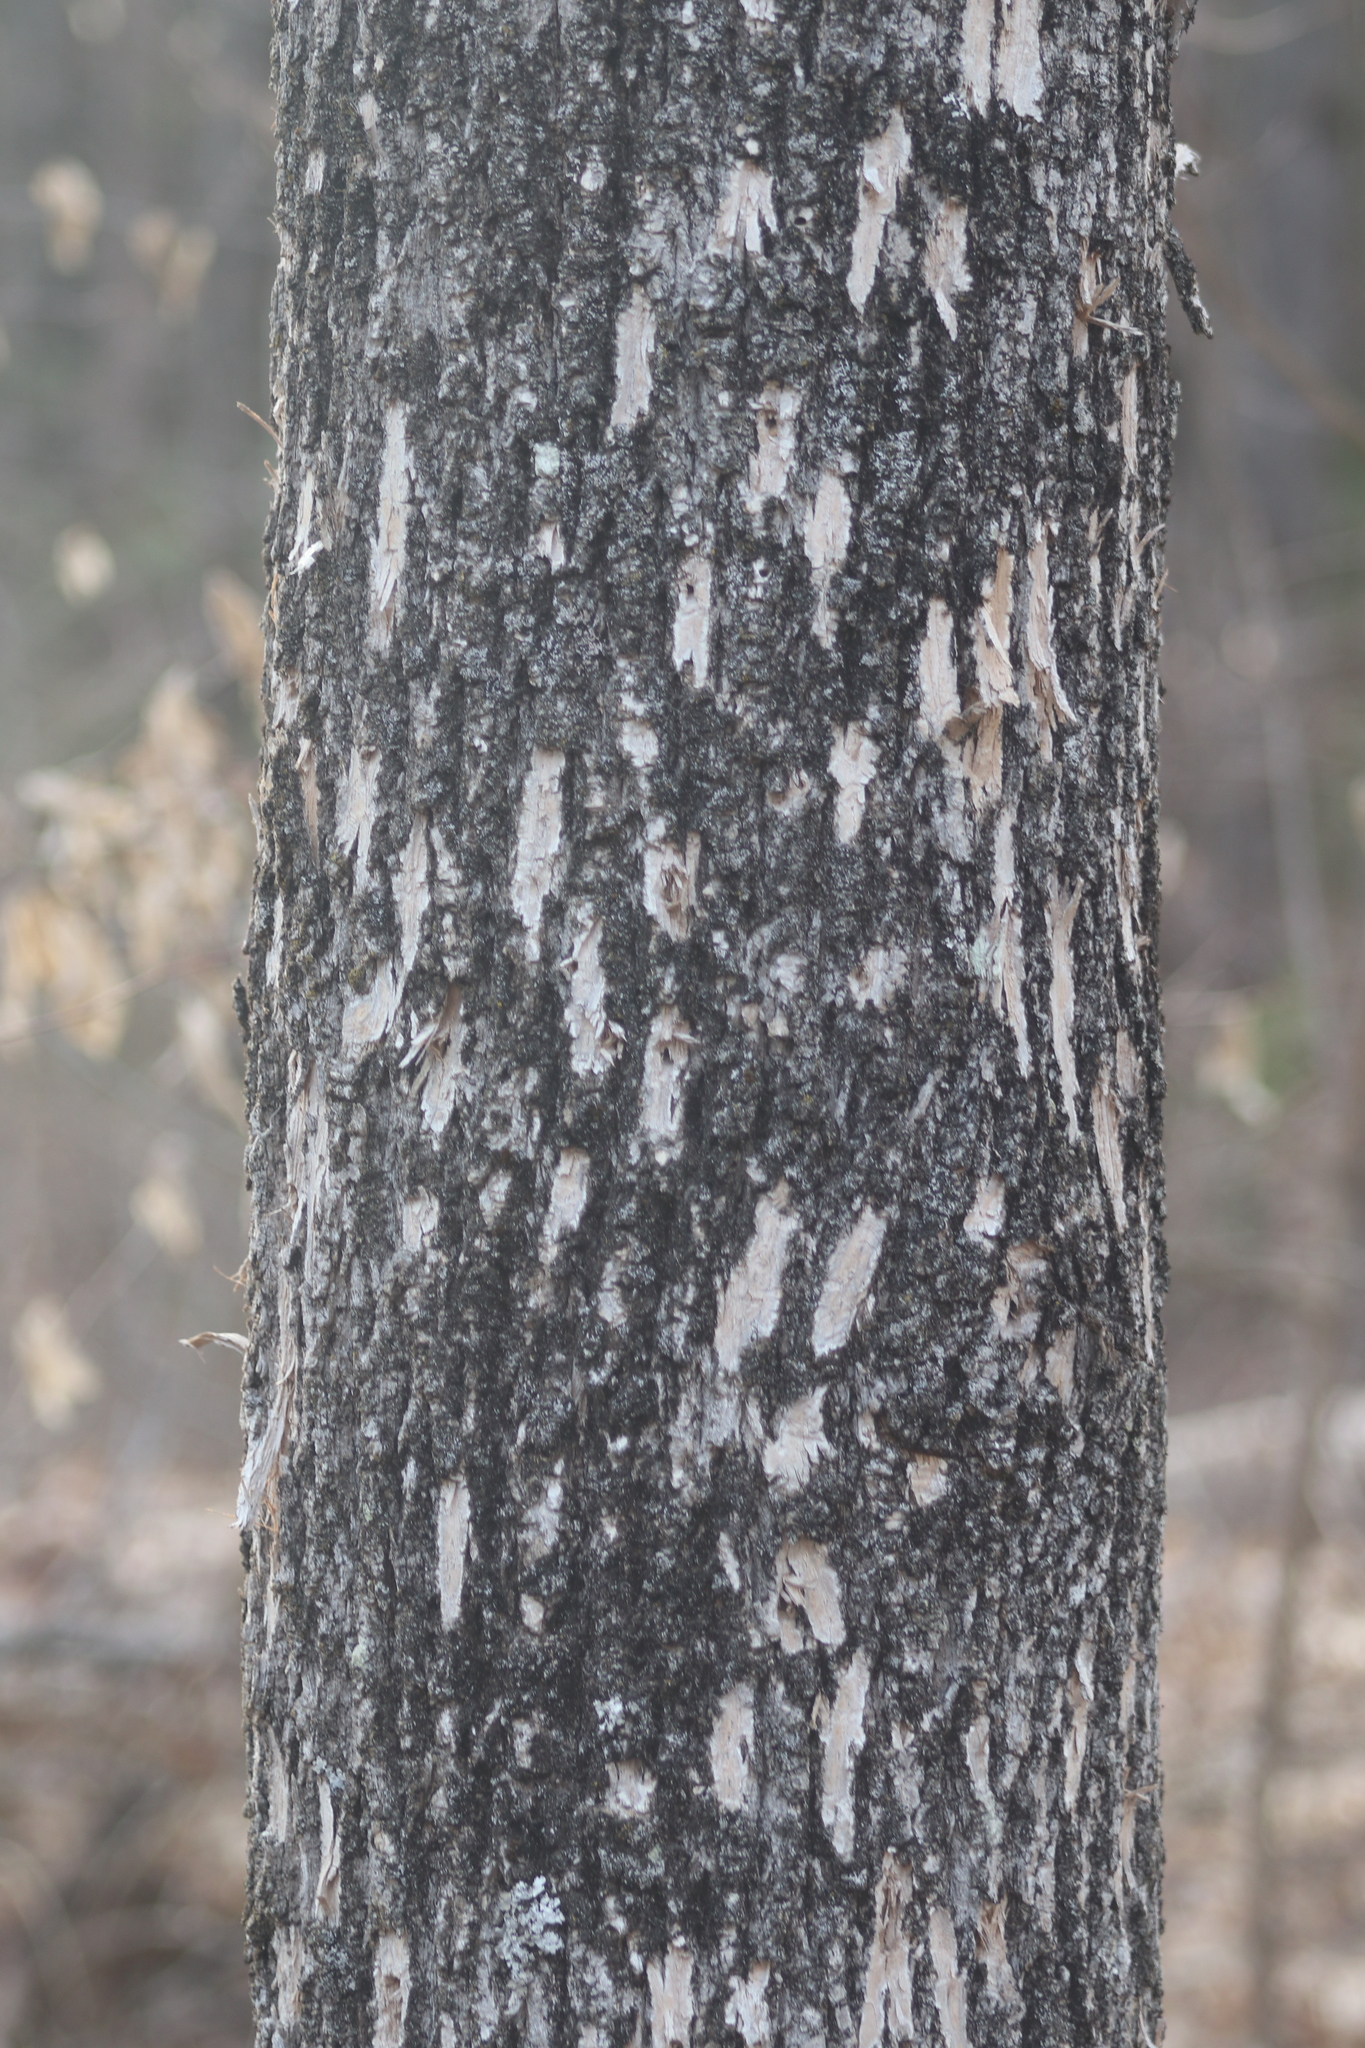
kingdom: Animalia
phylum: Arthropoda
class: Insecta
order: Coleoptera
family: Buprestidae
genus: Agrilus
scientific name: Agrilus planipennis
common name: Emerald ash borer
